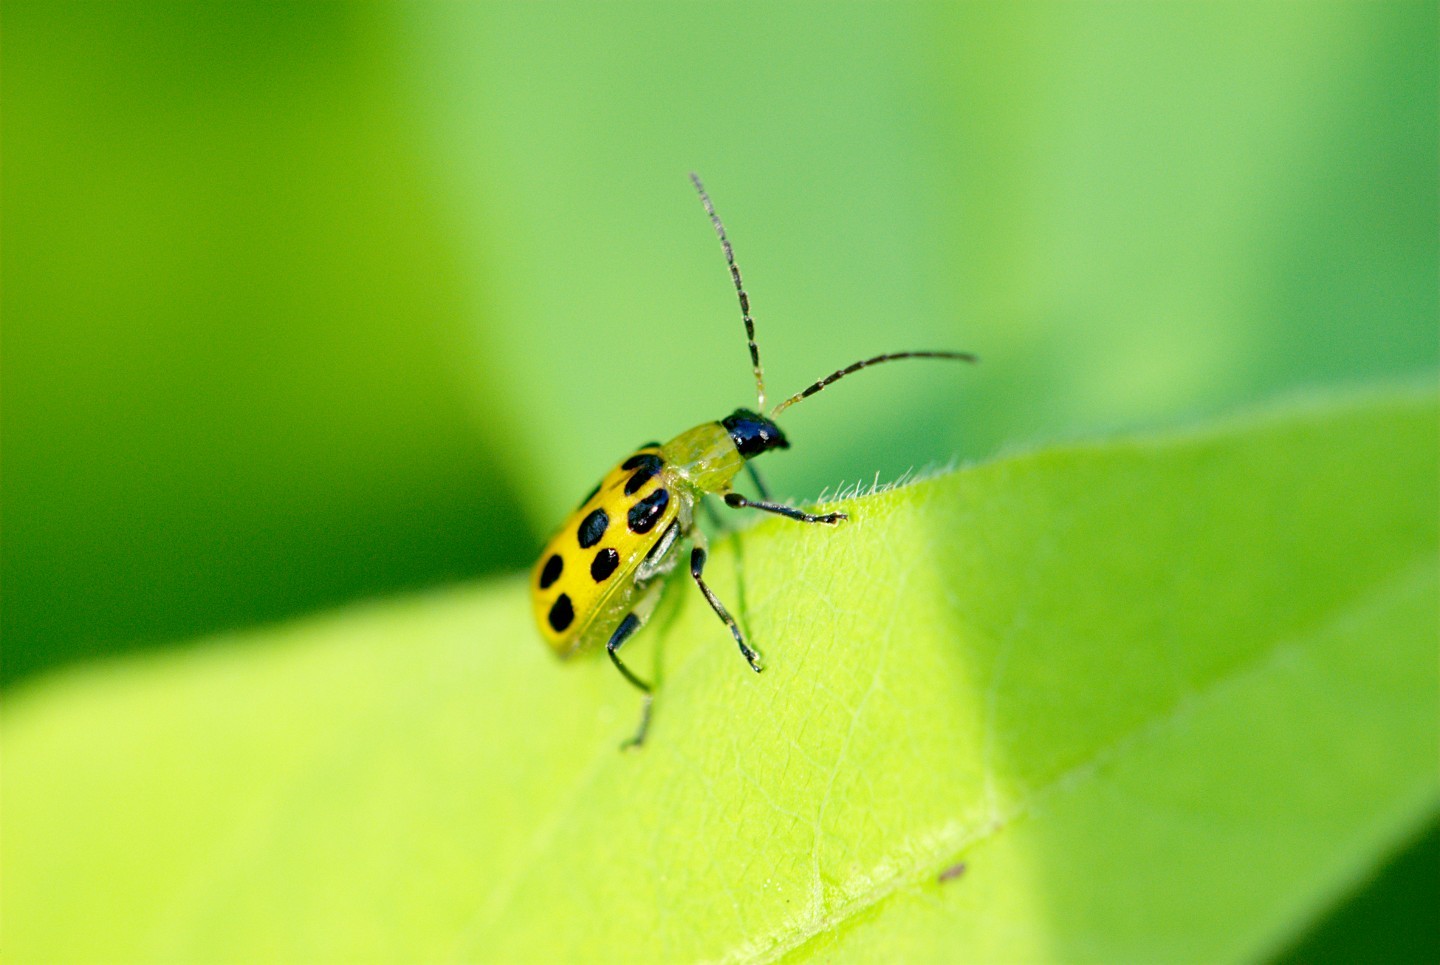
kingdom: Animalia
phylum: Arthropoda
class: Insecta
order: Coleoptera
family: Chrysomelidae
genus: Diabrotica
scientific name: Diabrotica undecimpunctata
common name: Spotted cucumber beetle
